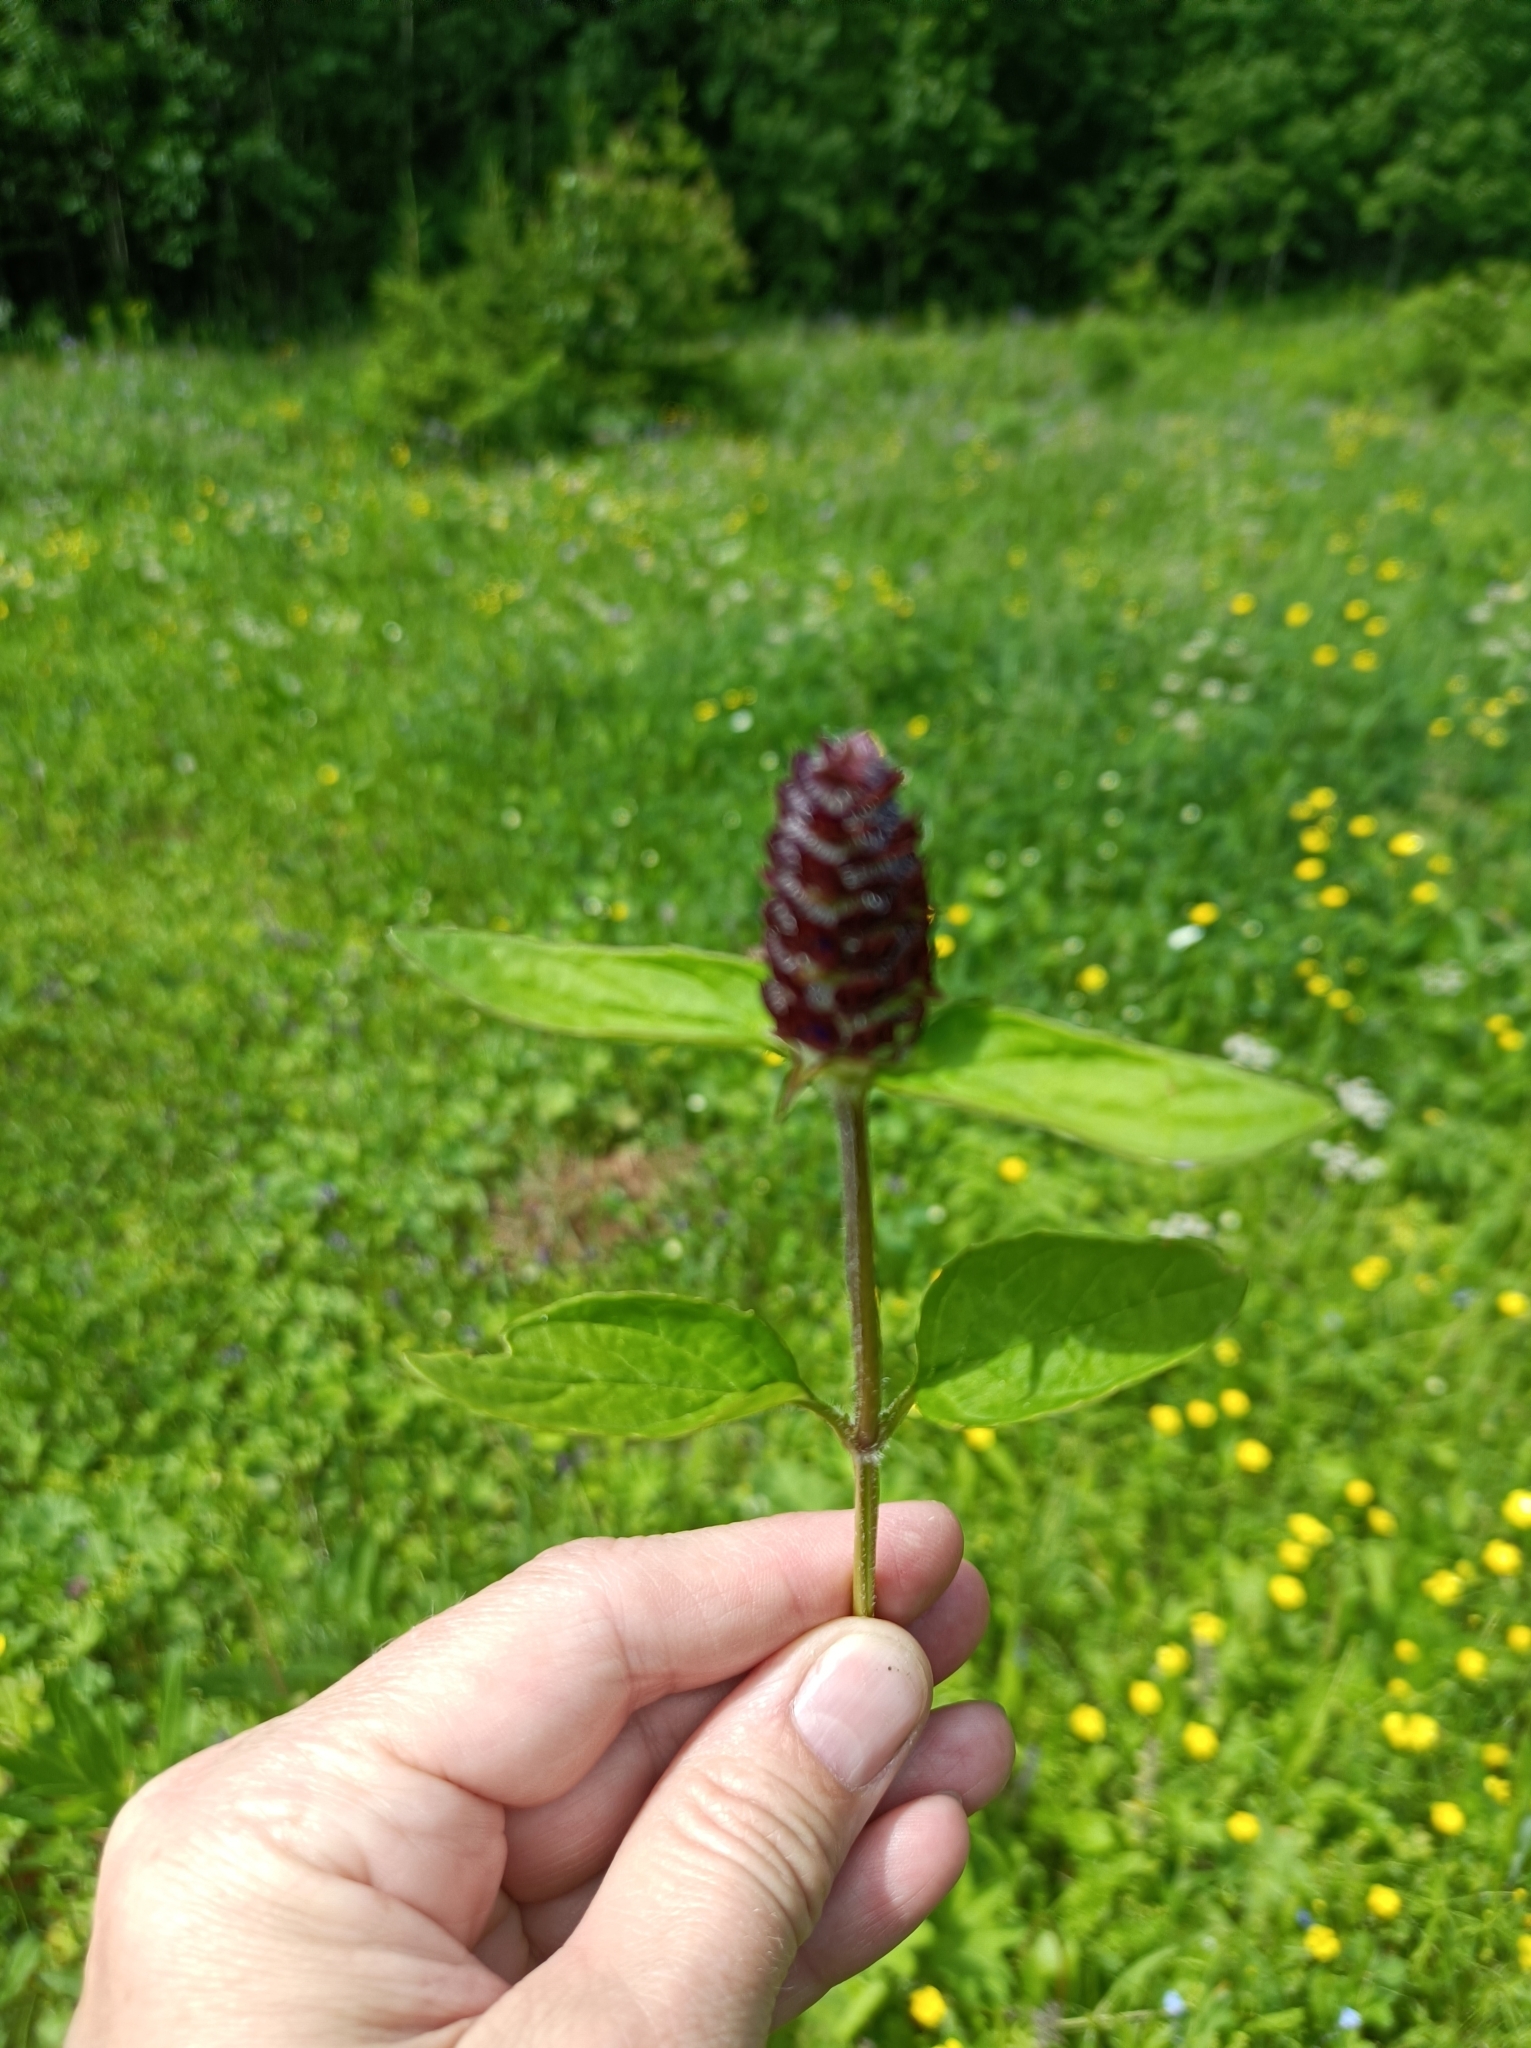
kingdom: Plantae
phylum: Tracheophyta
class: Magnoliopsida
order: Lamiales
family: Lamiaceae
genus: Prunella
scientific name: Prunella vulgaris
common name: Heal-all
